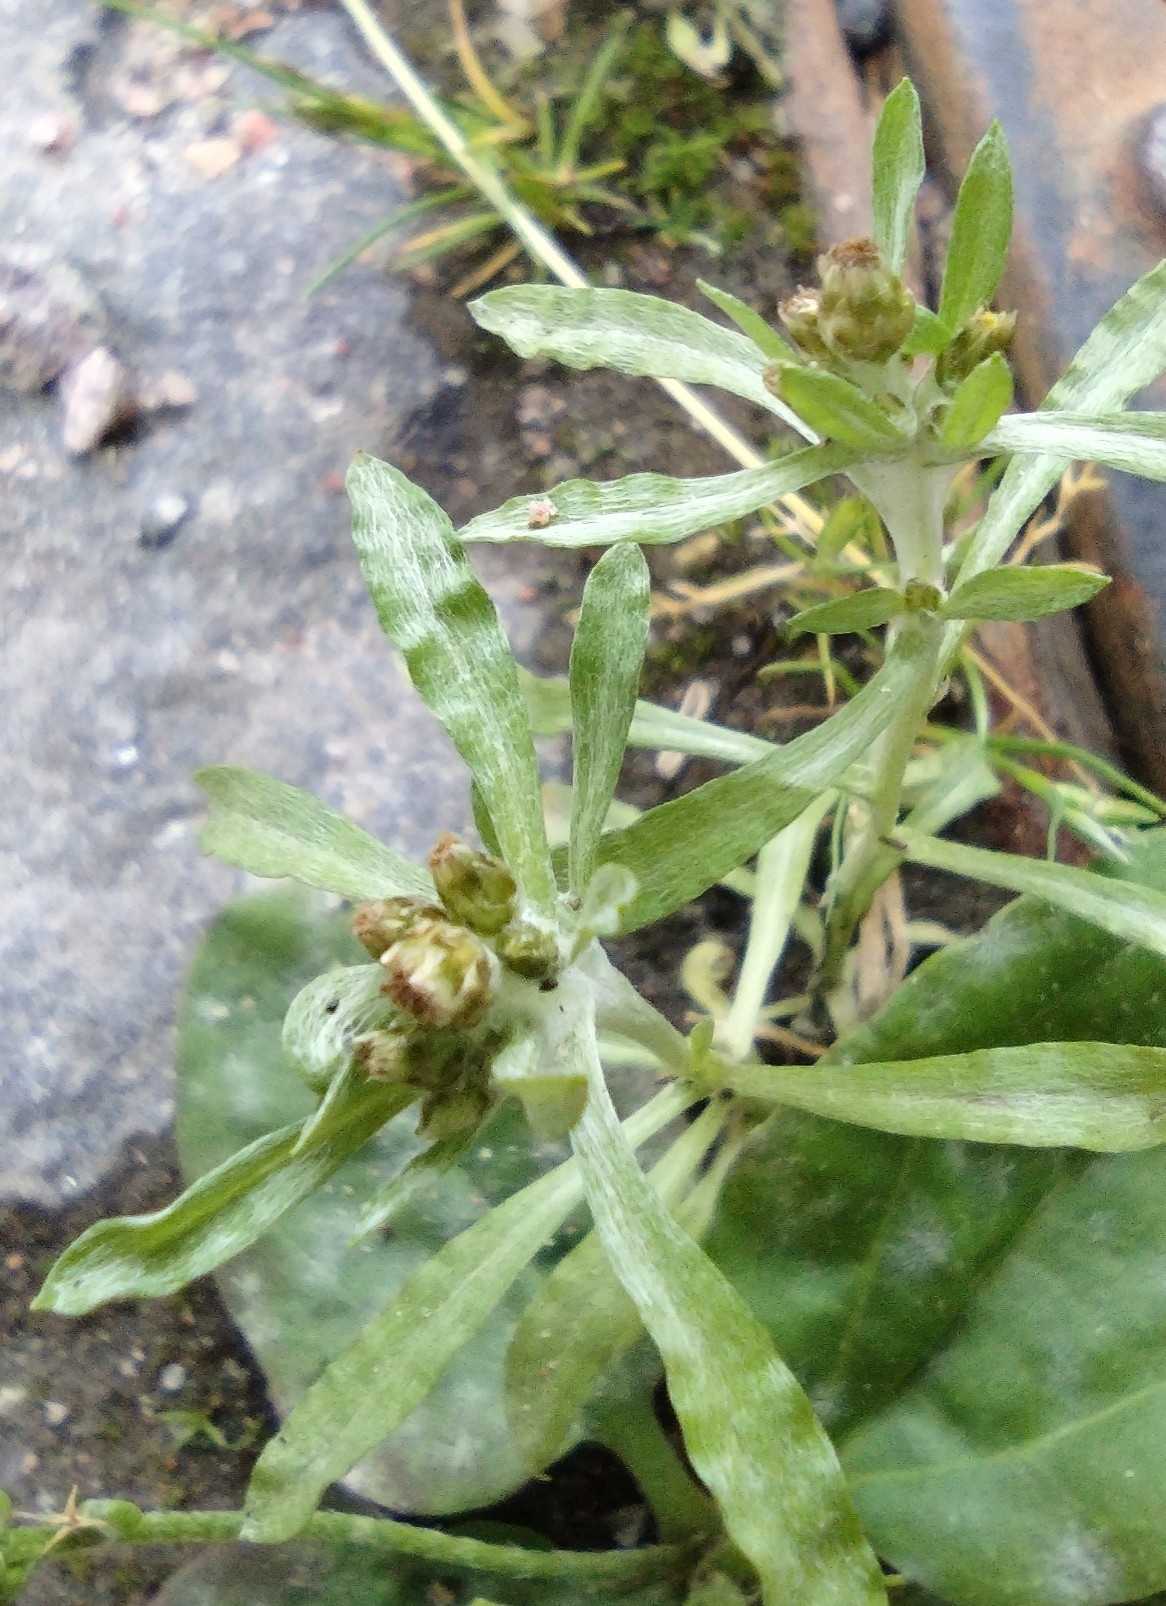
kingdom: Plantae
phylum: Tracheophyta
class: Magnoliopsida
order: Asterales
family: Asteraceae
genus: Gnaphalium
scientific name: Gnaphalium uliginosum
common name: Marsh cudweed
